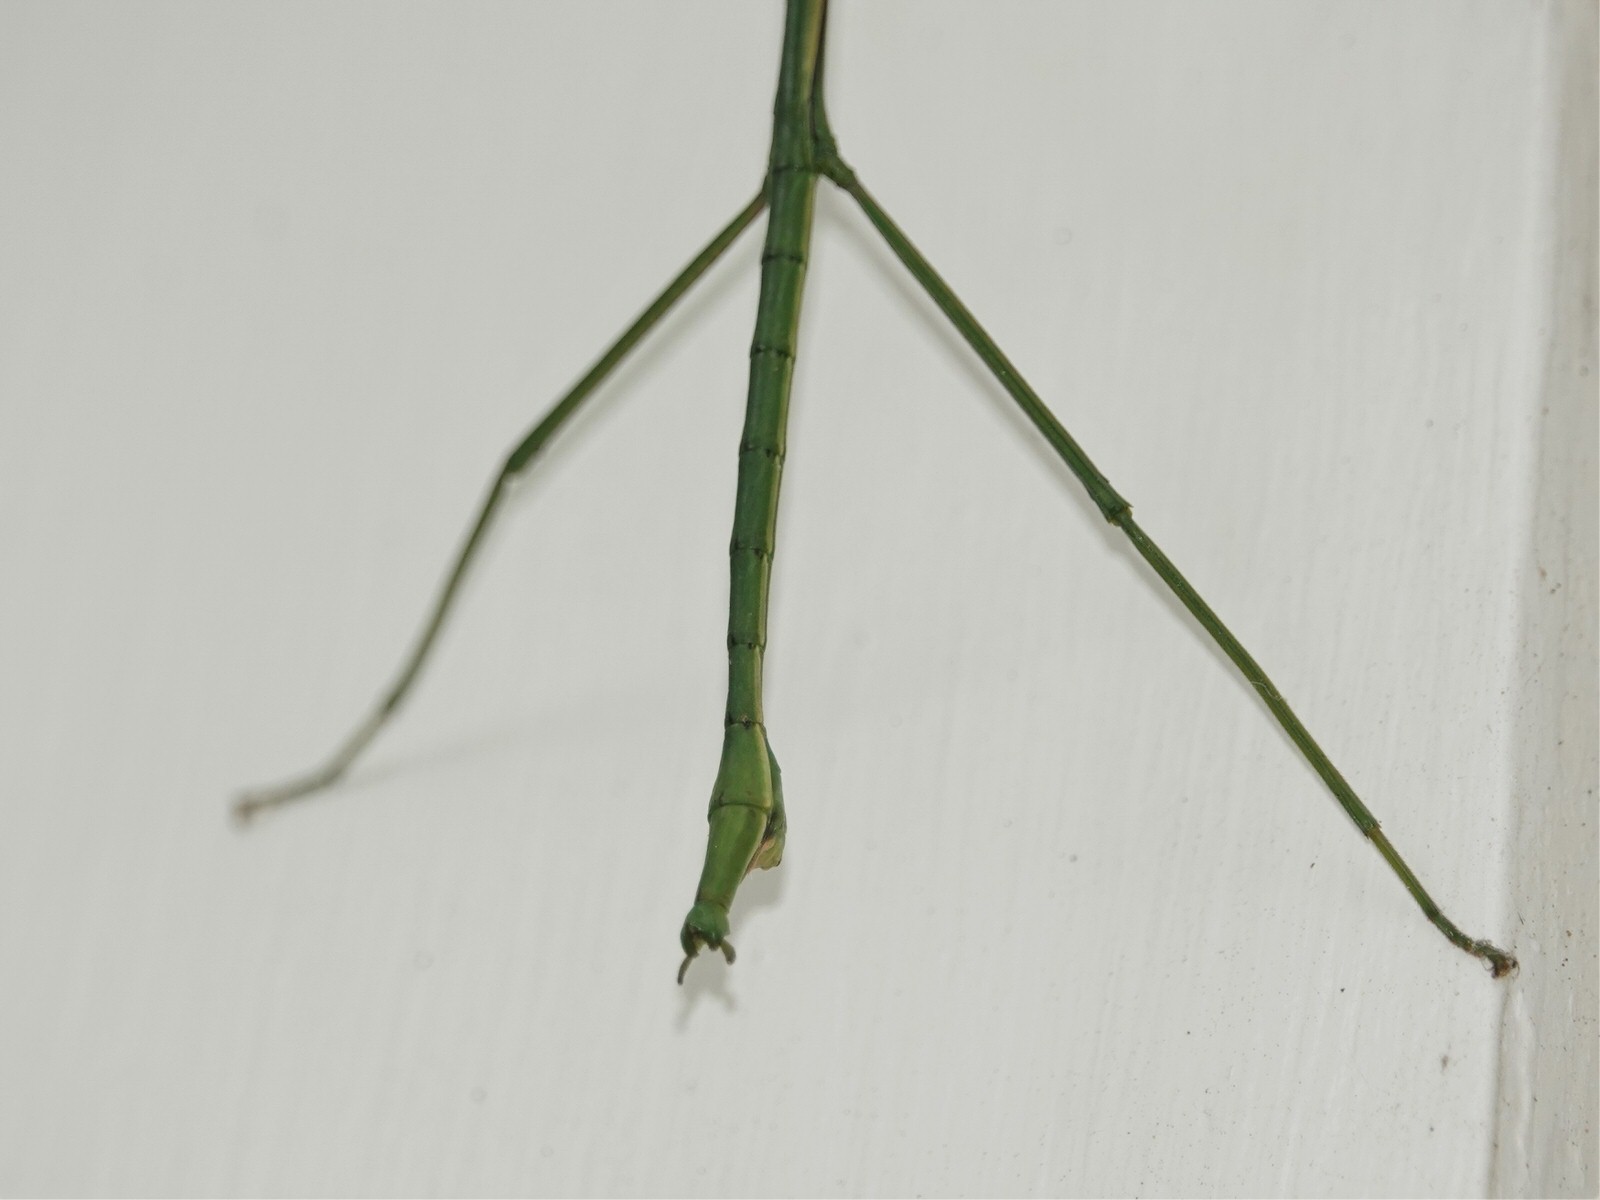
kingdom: Animalia
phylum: Arthropoda
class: Insecta
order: Phasmida
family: Phasmatidae
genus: Clitarchus
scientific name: Clitarchus hookeri
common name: Smooth stick insect
